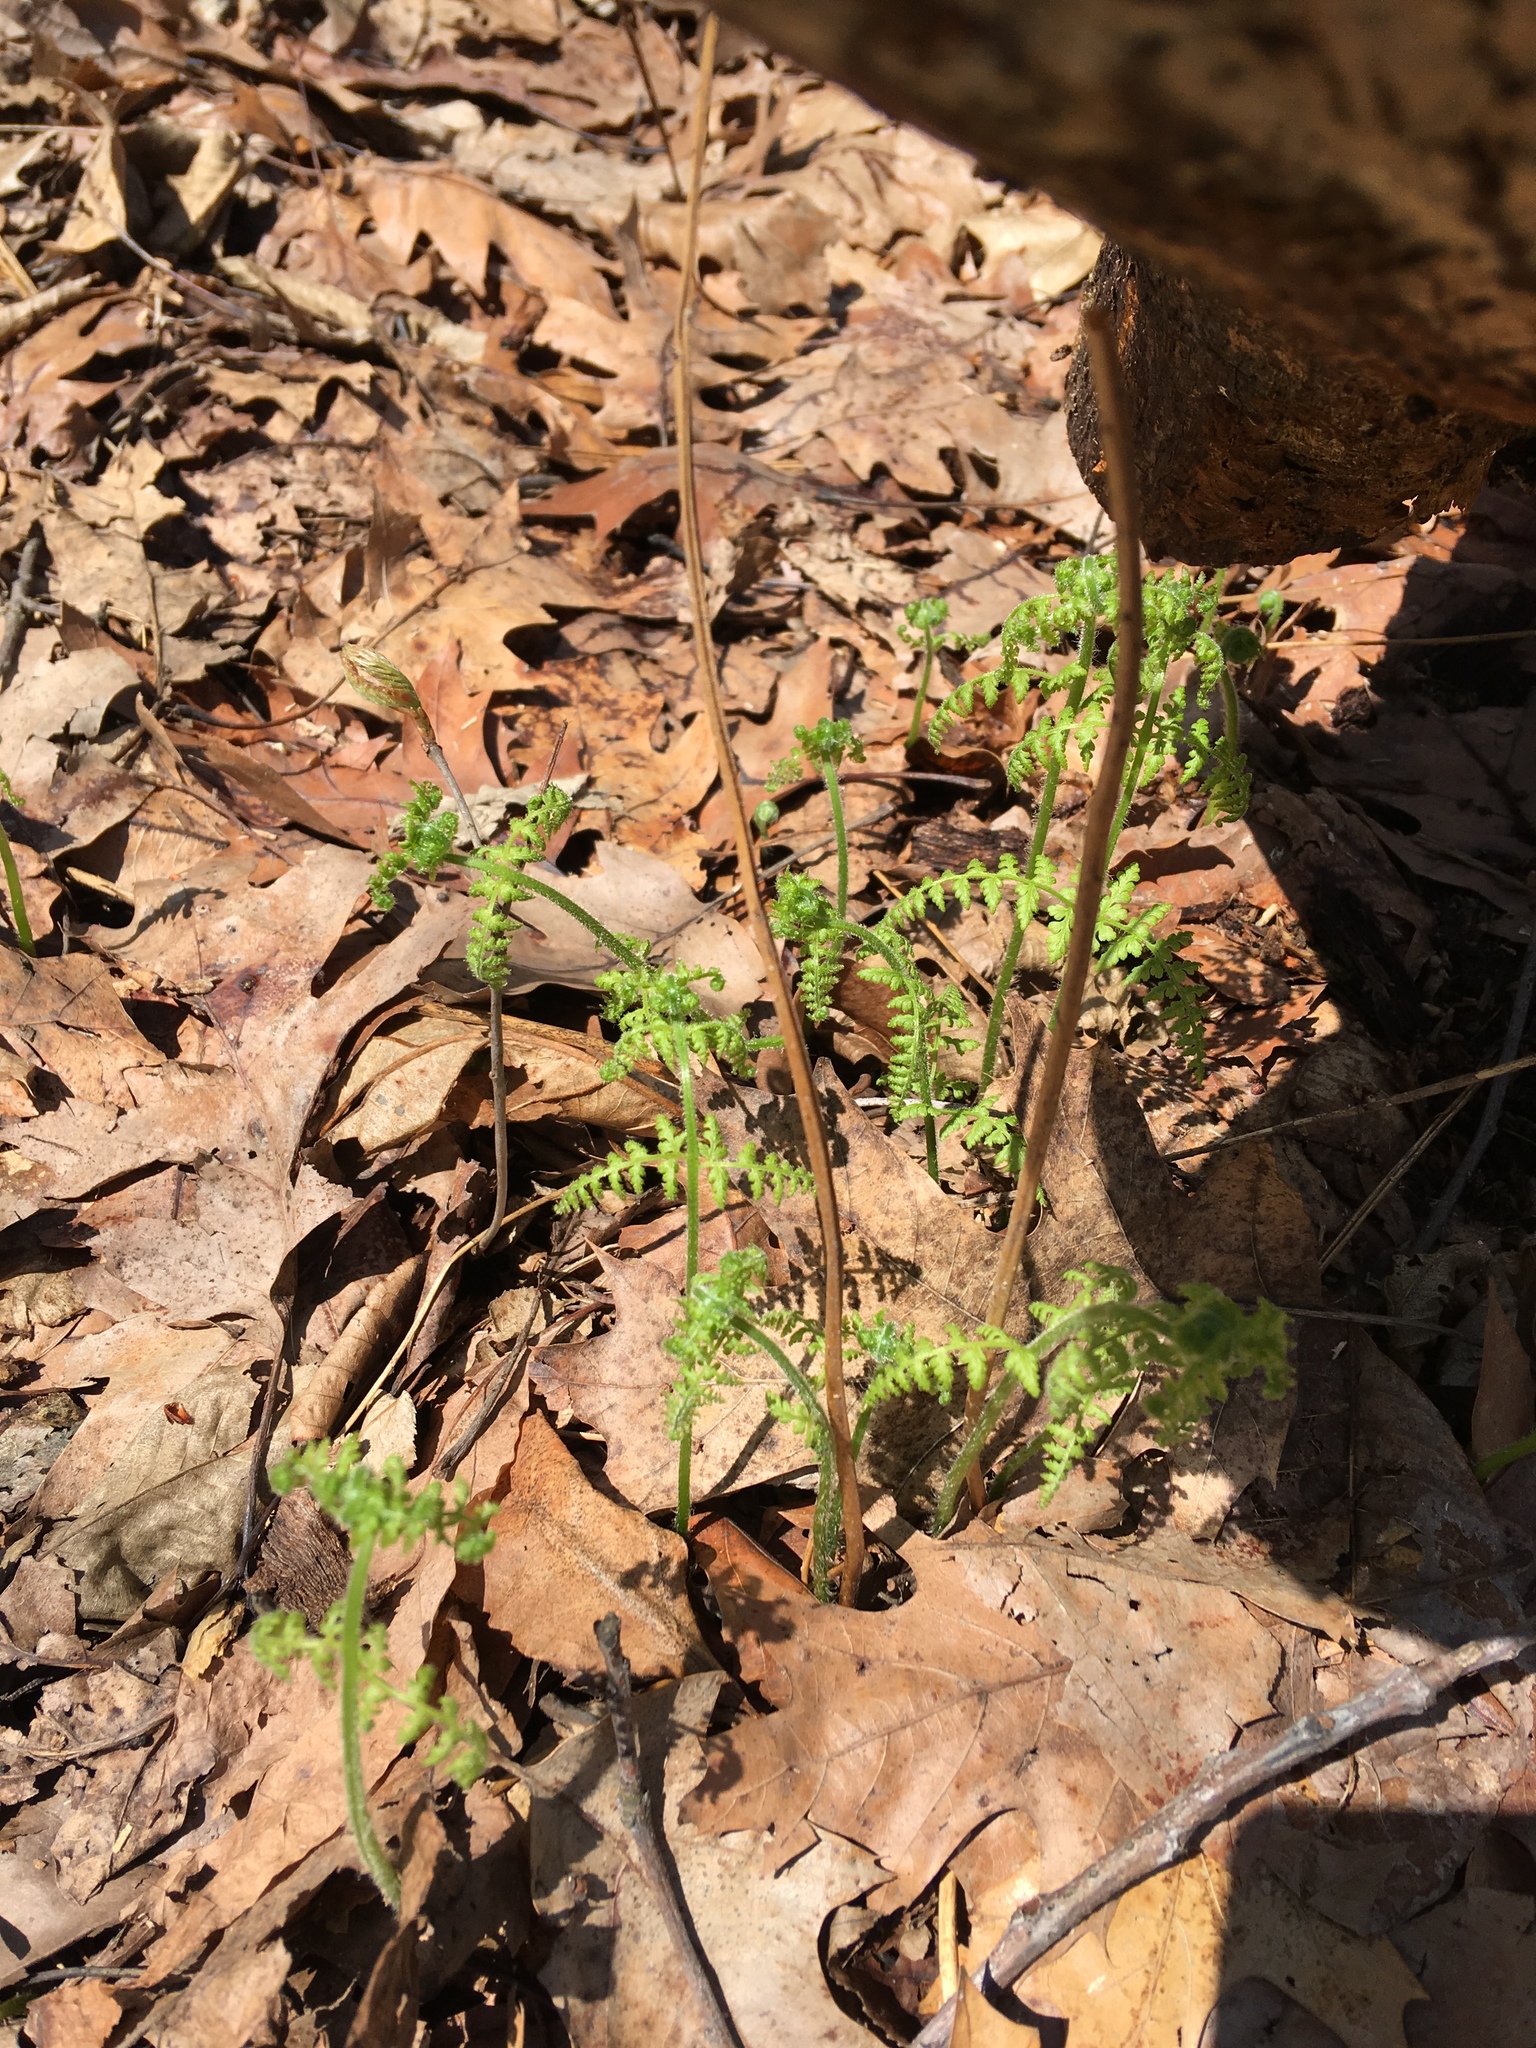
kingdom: Plantae
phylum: Tracheophyta
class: Polypodiopsida
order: Polypodiales
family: Dennstaedtiaceae
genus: Sitobolium
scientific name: Sitobolium punctilobum
